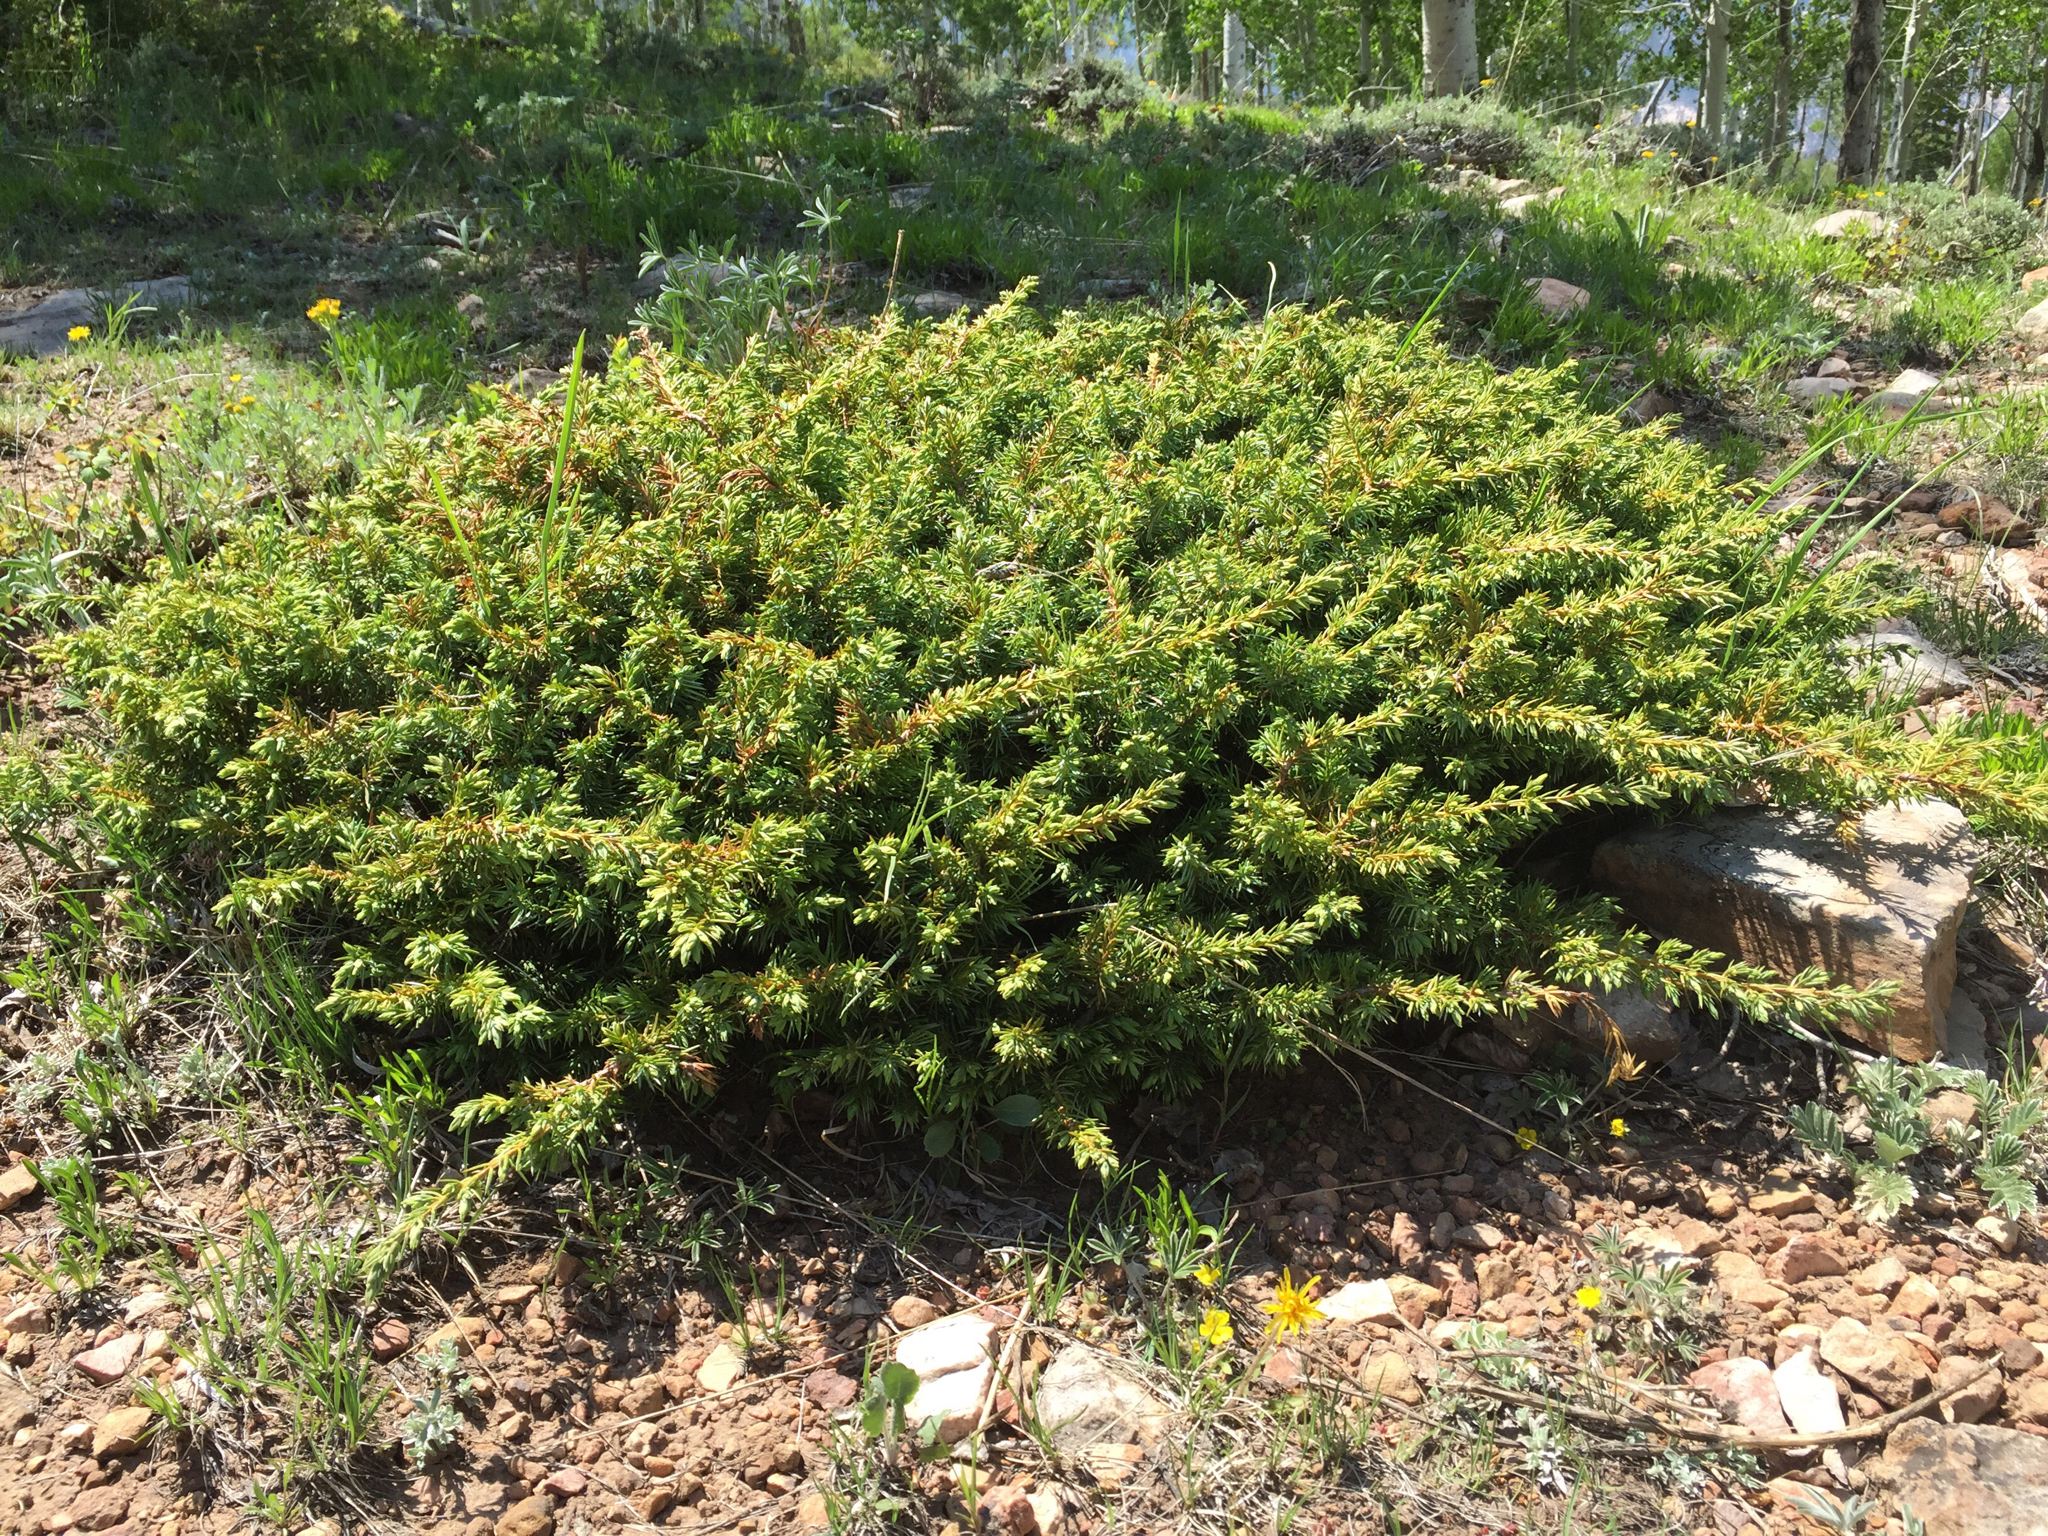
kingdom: Plantae
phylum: Tracheophyta
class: Pinopsida
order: Pinales
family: Cupressaceae
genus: Juniperus
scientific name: Juniperus communis
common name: Common juniper
